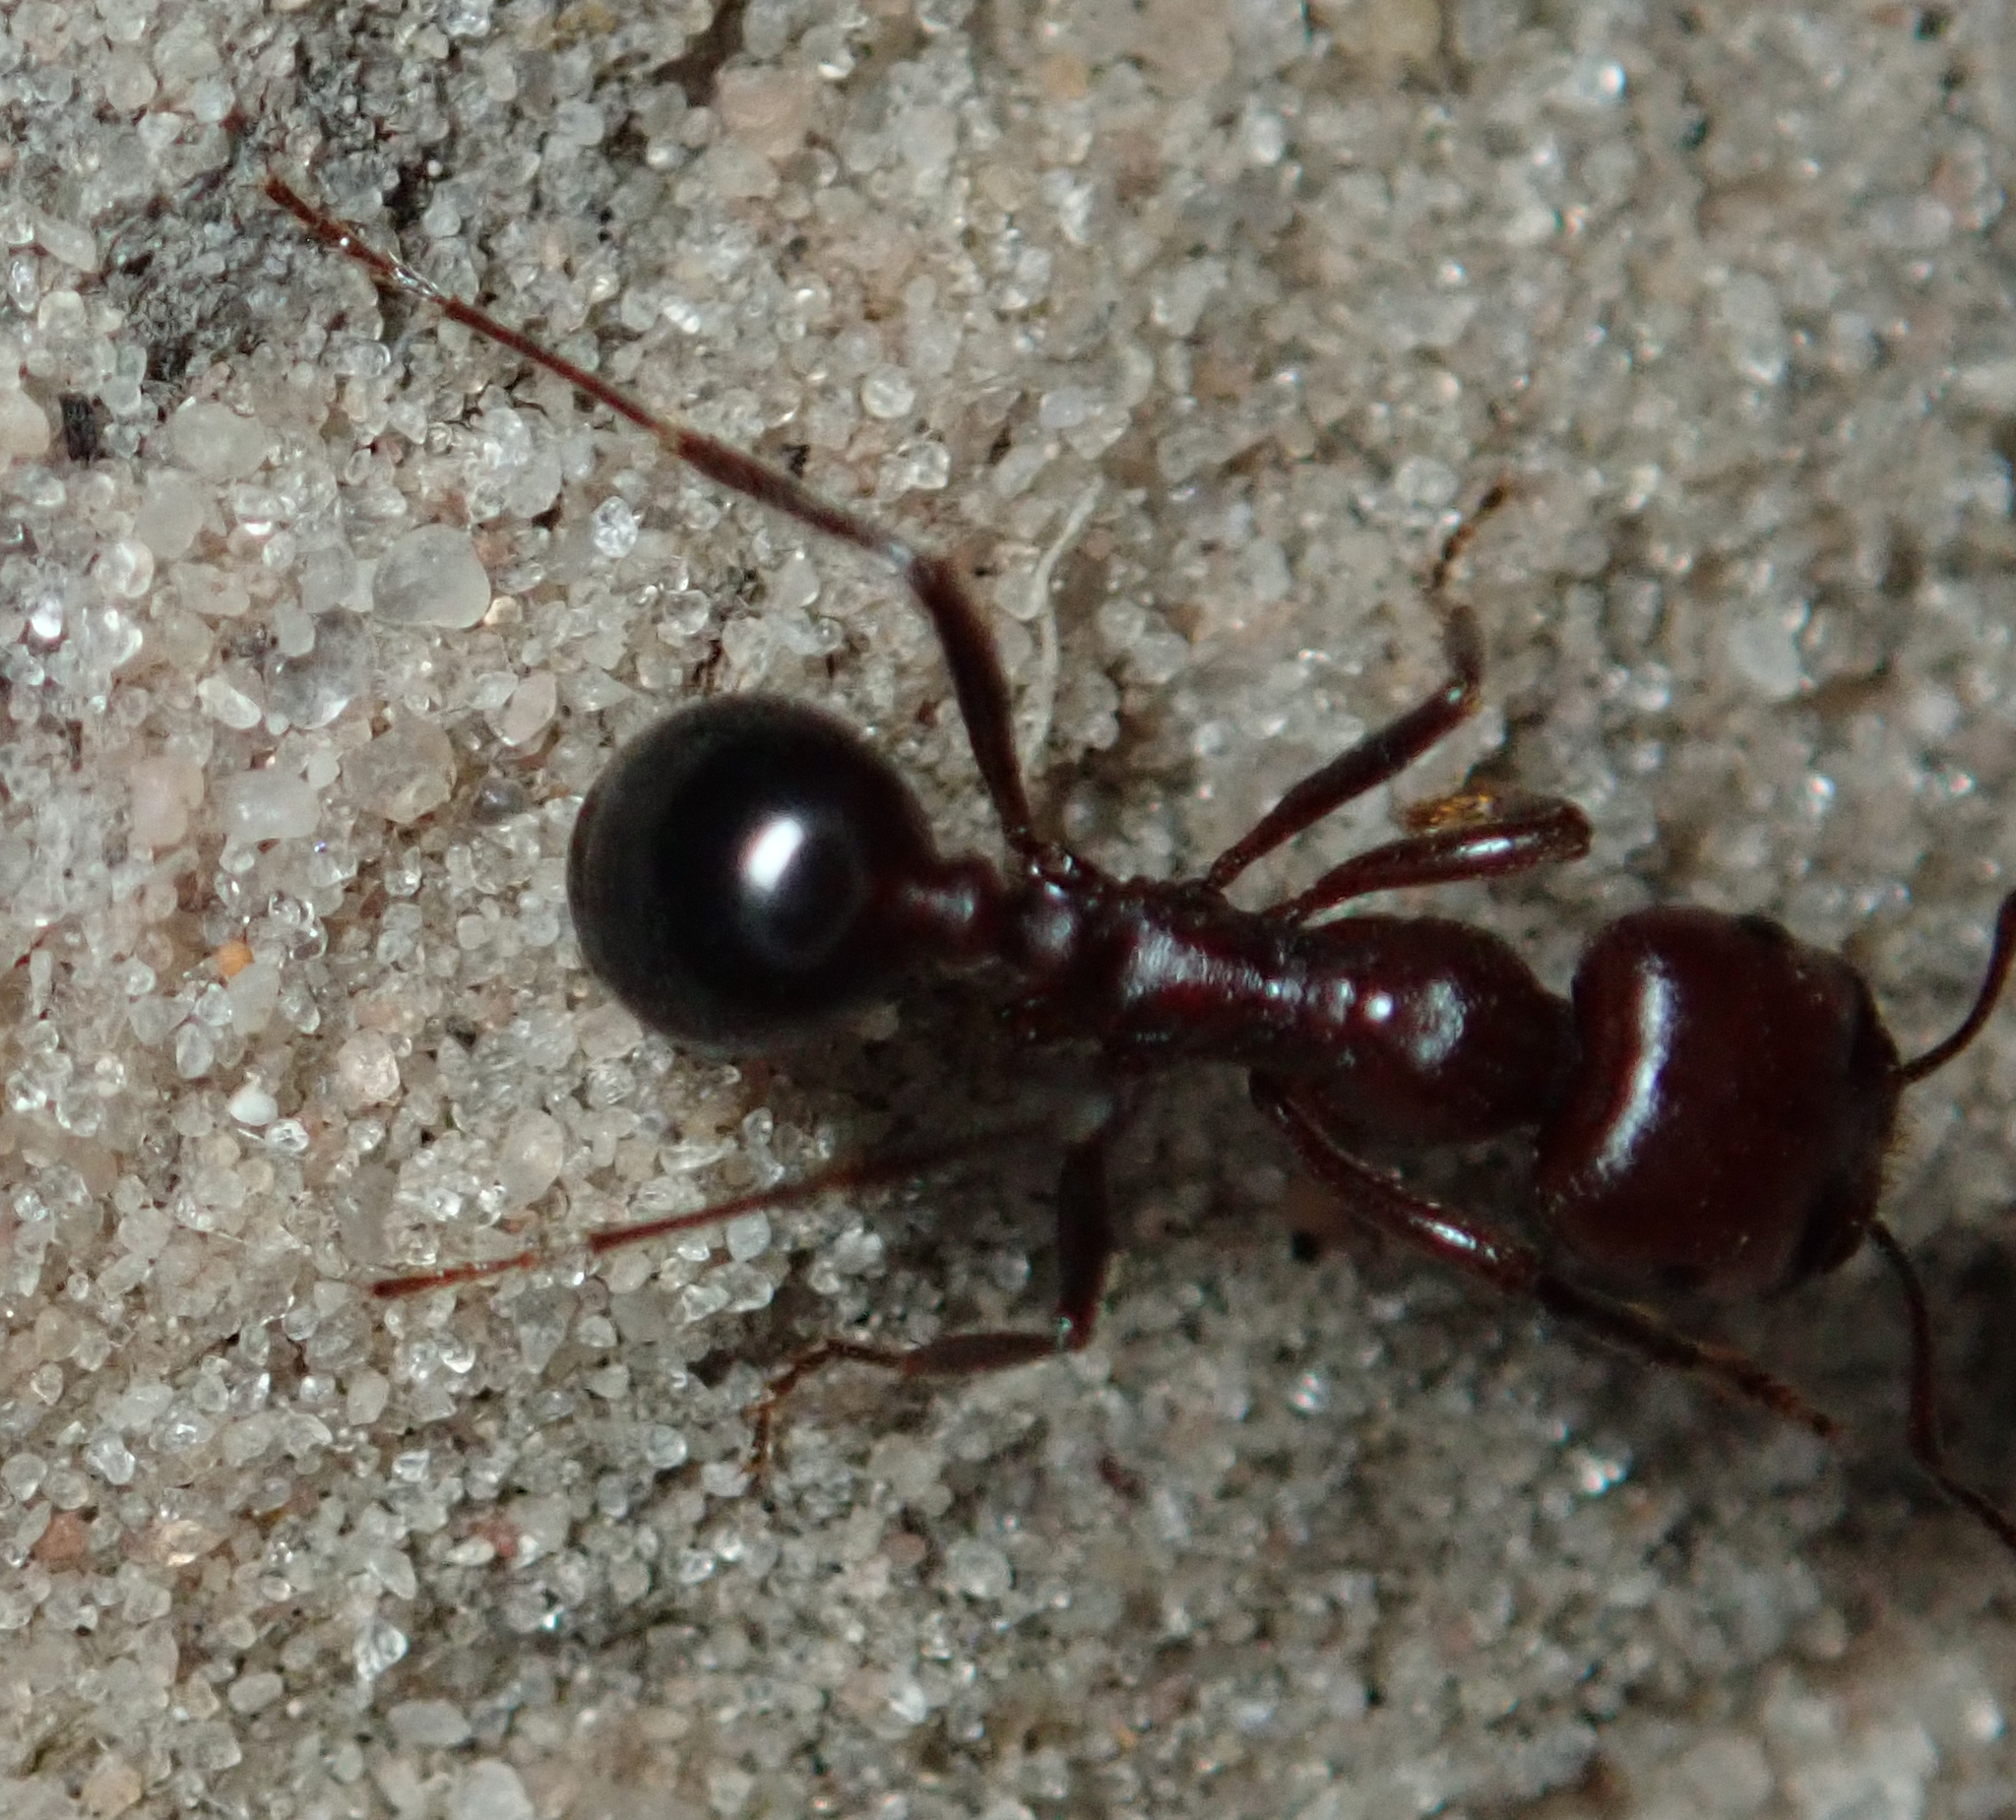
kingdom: Animalia
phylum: Arthropoda
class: Insecta
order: Hymenoptera
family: Formicidae
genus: Messor
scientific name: Messor denticornis
